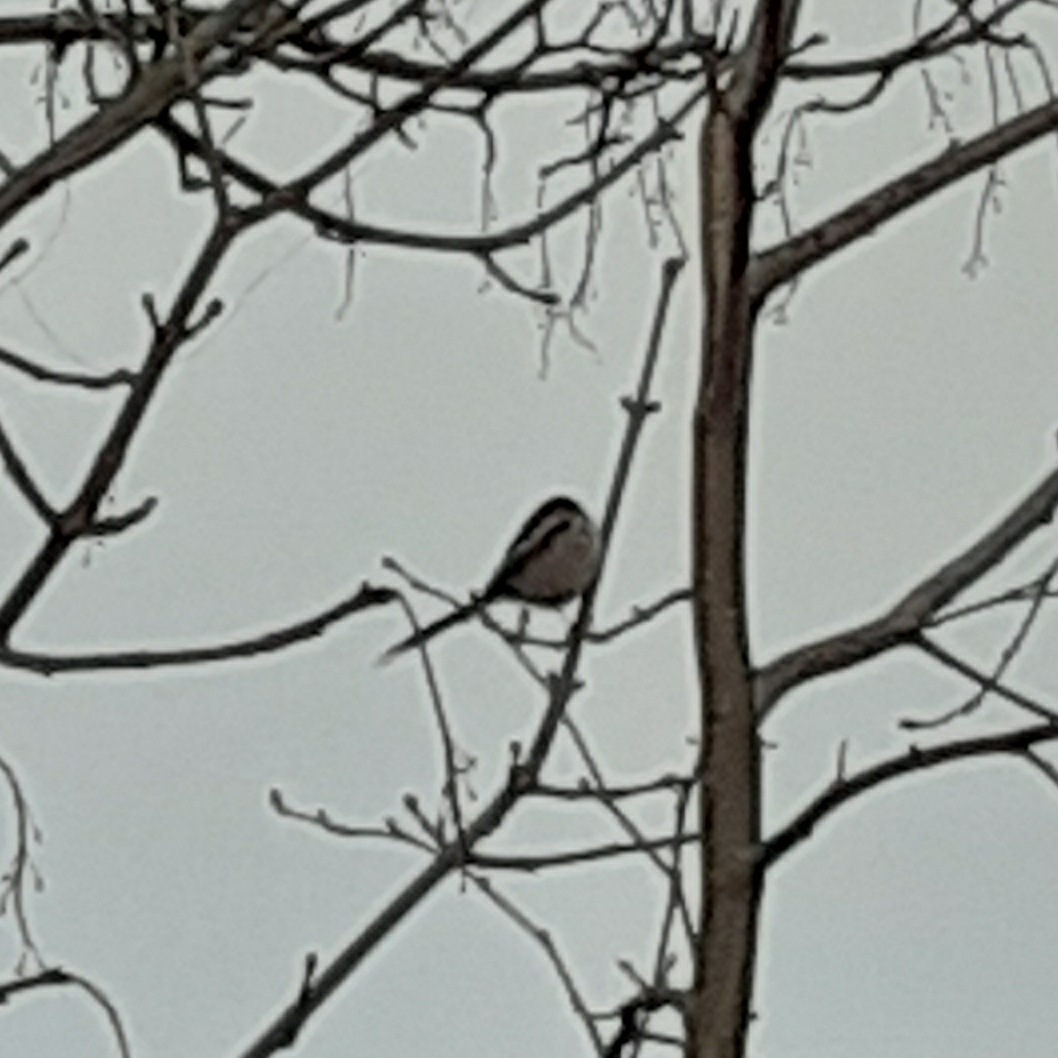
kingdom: Animalia
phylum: Chordata
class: Aves
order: Passeriformes
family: Aegithalidae
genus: Aegithalos
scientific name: Aegithalos caudatus
